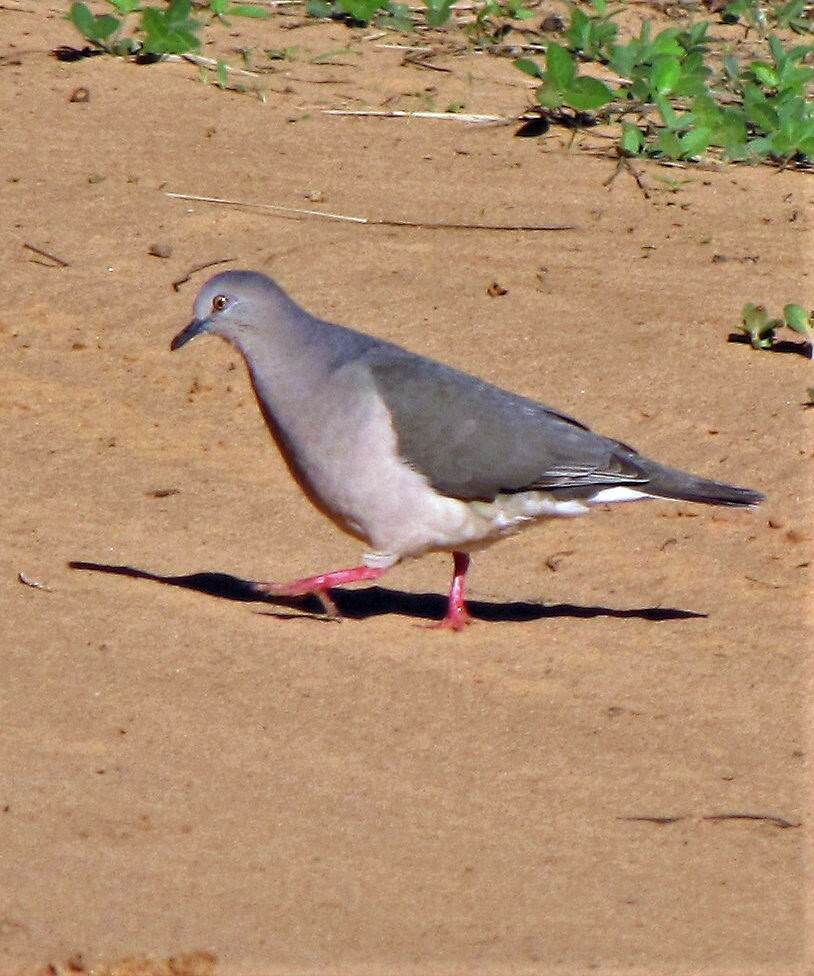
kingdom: Animalia
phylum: Chordata
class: Aves
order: Columbiformes
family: Columbidae
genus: Leptotila
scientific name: Leptotila verreauxi
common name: White-tipped dove
